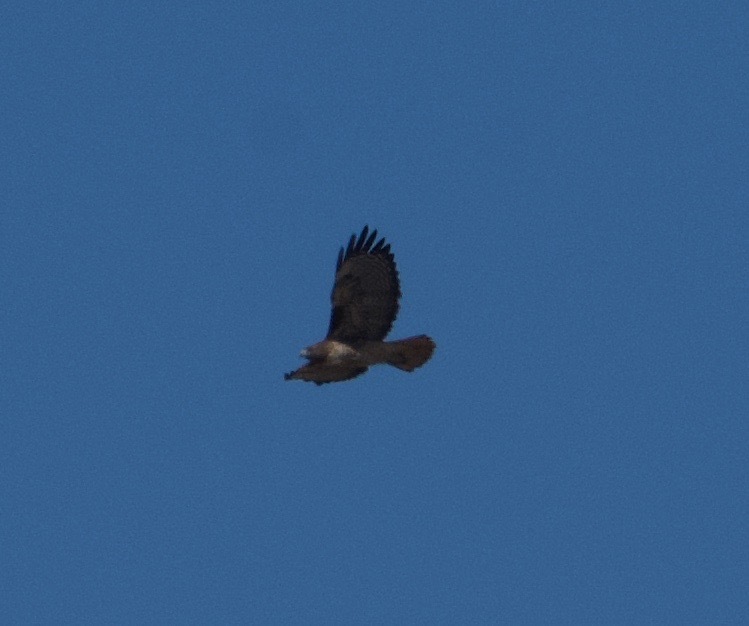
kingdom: Animalia
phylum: Chordata
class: Aves
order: Accipitriformes
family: Accipitridae
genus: Buteo
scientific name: Buteo jamaicensis
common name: Red-tailed hawk
